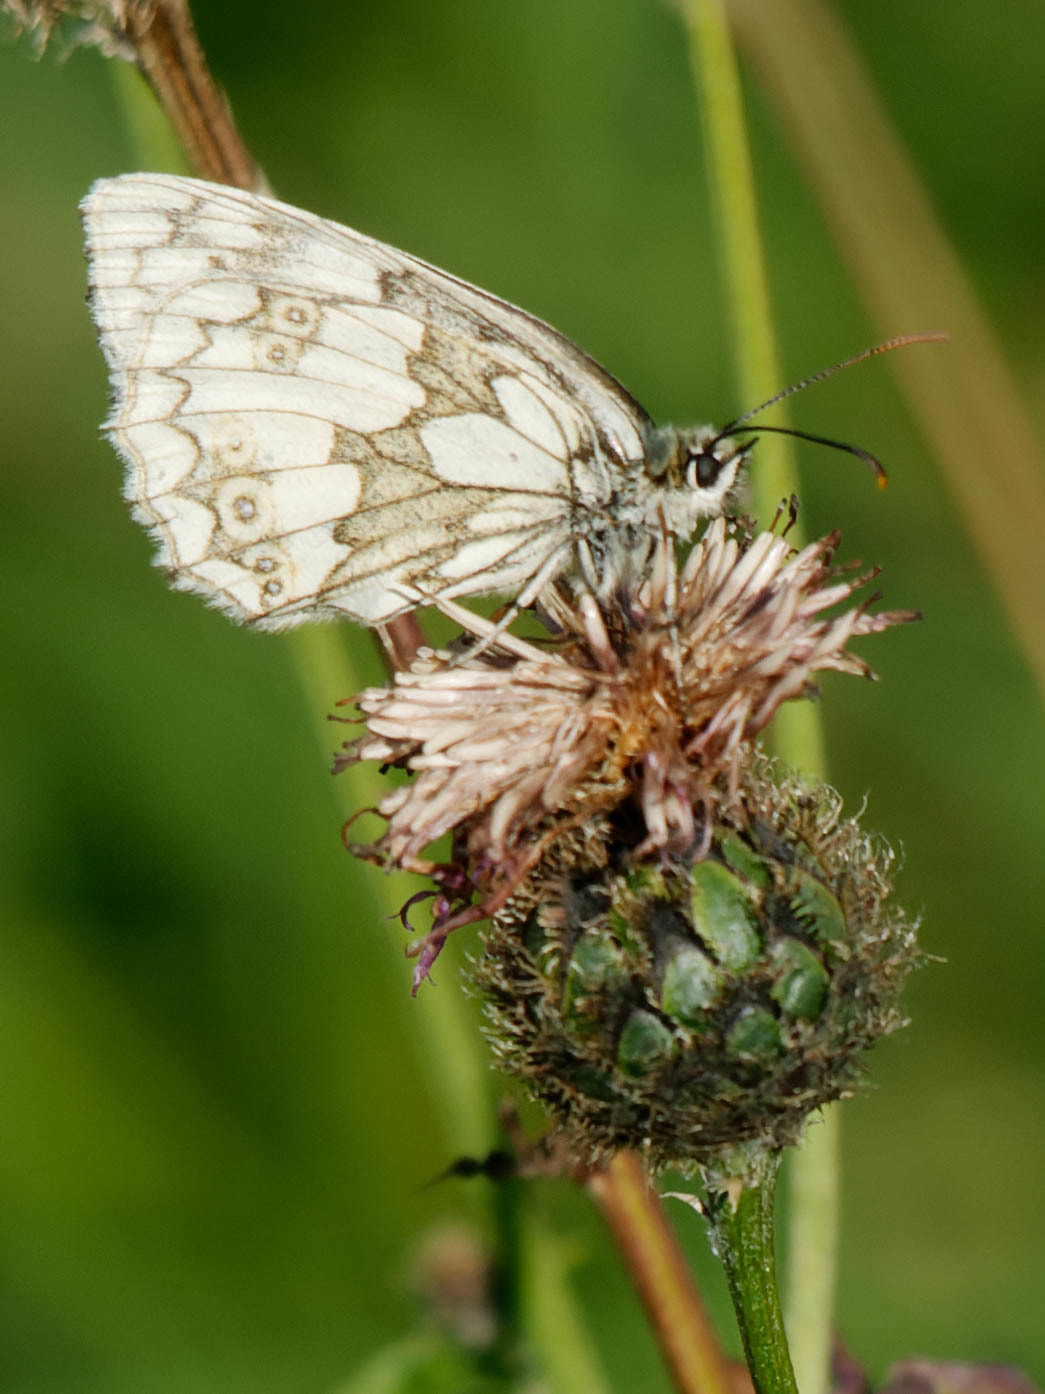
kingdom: Animalia
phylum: Arthropoda
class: Insecta
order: Lepidoptera
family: Nymphalidae
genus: Melanargia
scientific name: Melanargia galathea
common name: Marbled white
